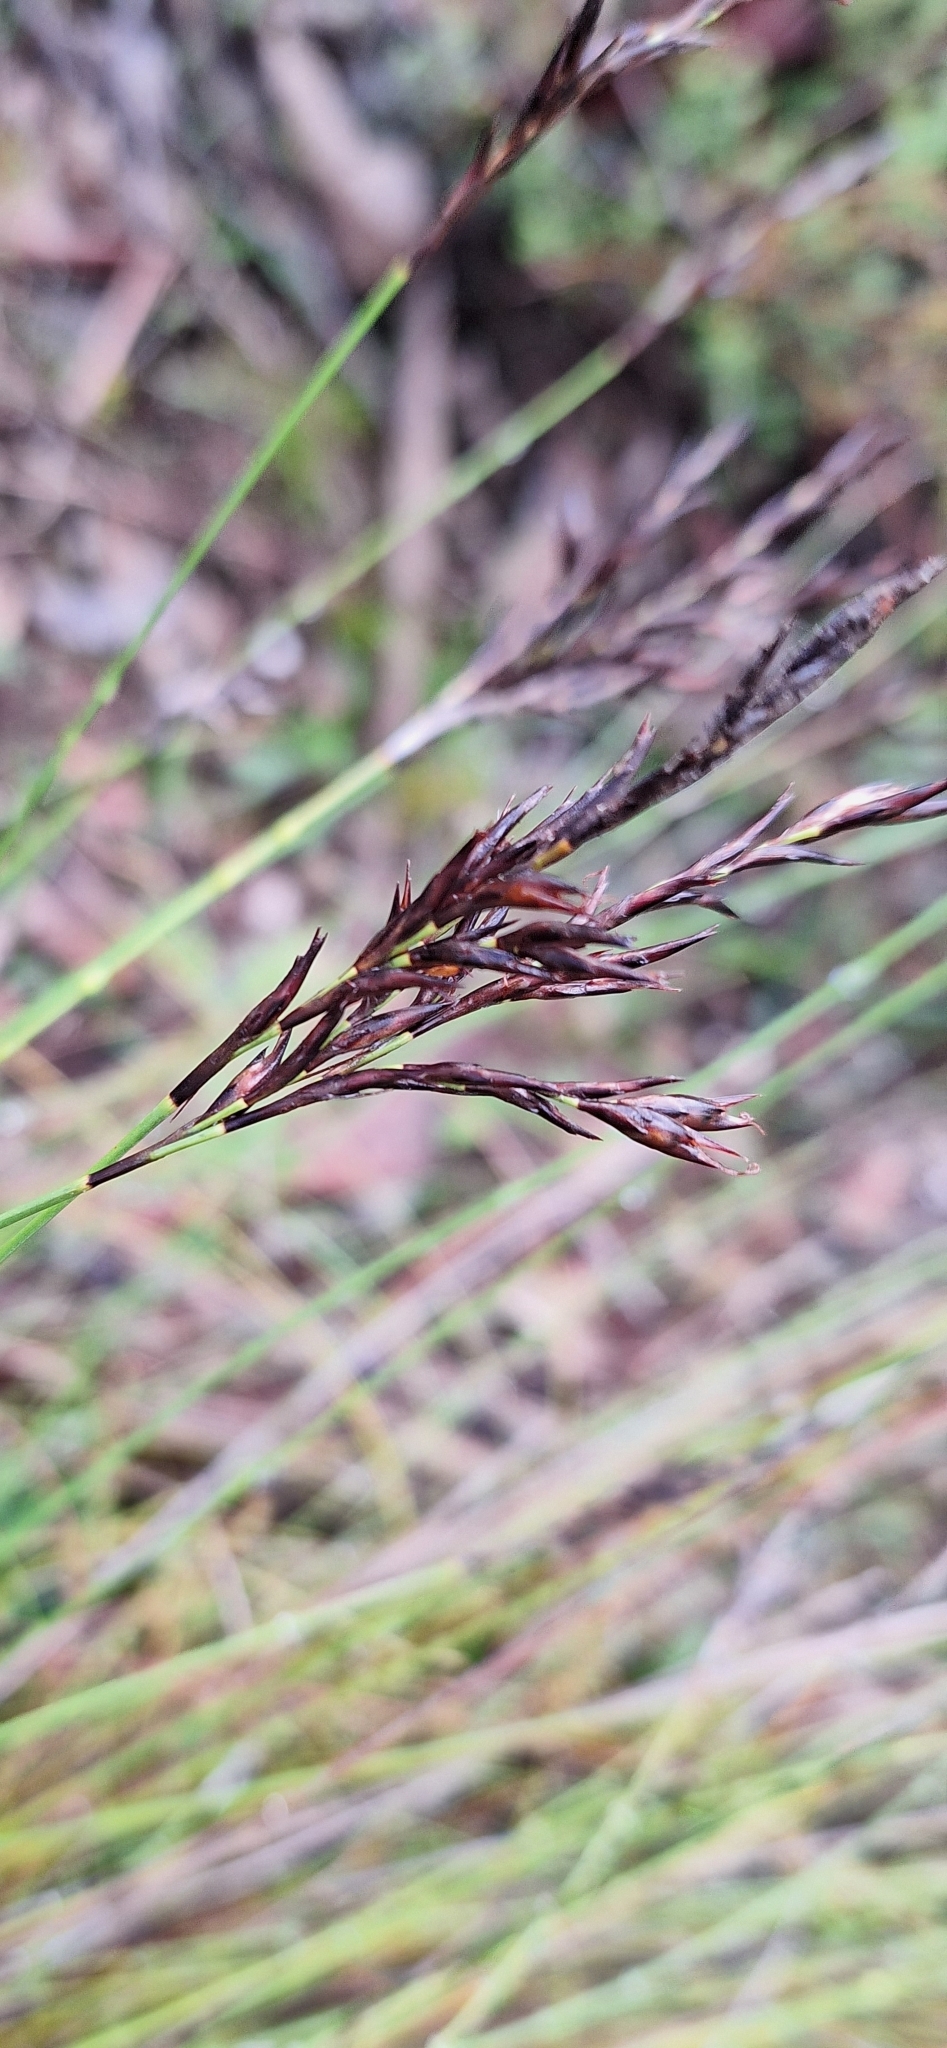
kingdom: Plantae
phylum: Tracheophyta
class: Liliopsida
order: Poales
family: Cyperaceae
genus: Lepidosperma
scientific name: Lepidosperma semiteres
